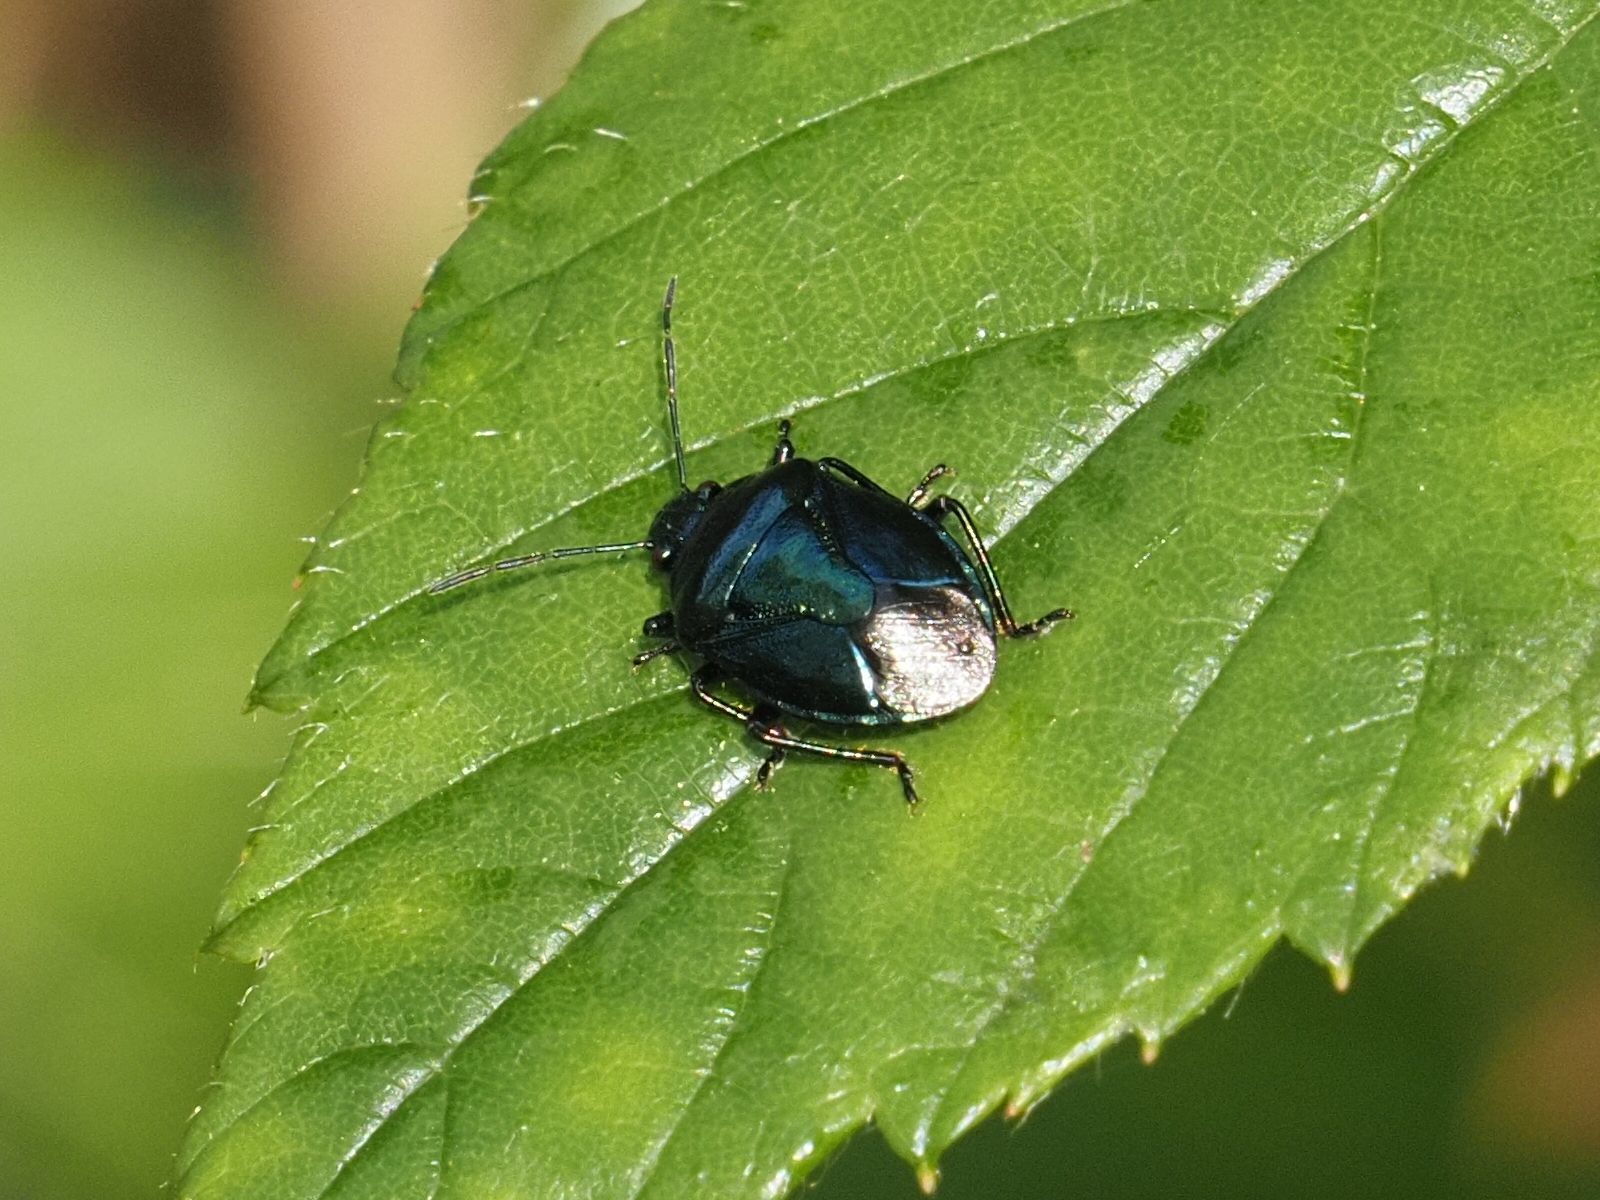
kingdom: Animalia
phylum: Arthropoda
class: Insecta
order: Hemiptera
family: Pentatomidae
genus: Zicrona
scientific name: Zicrona caerulea
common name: Blue shieldbug
